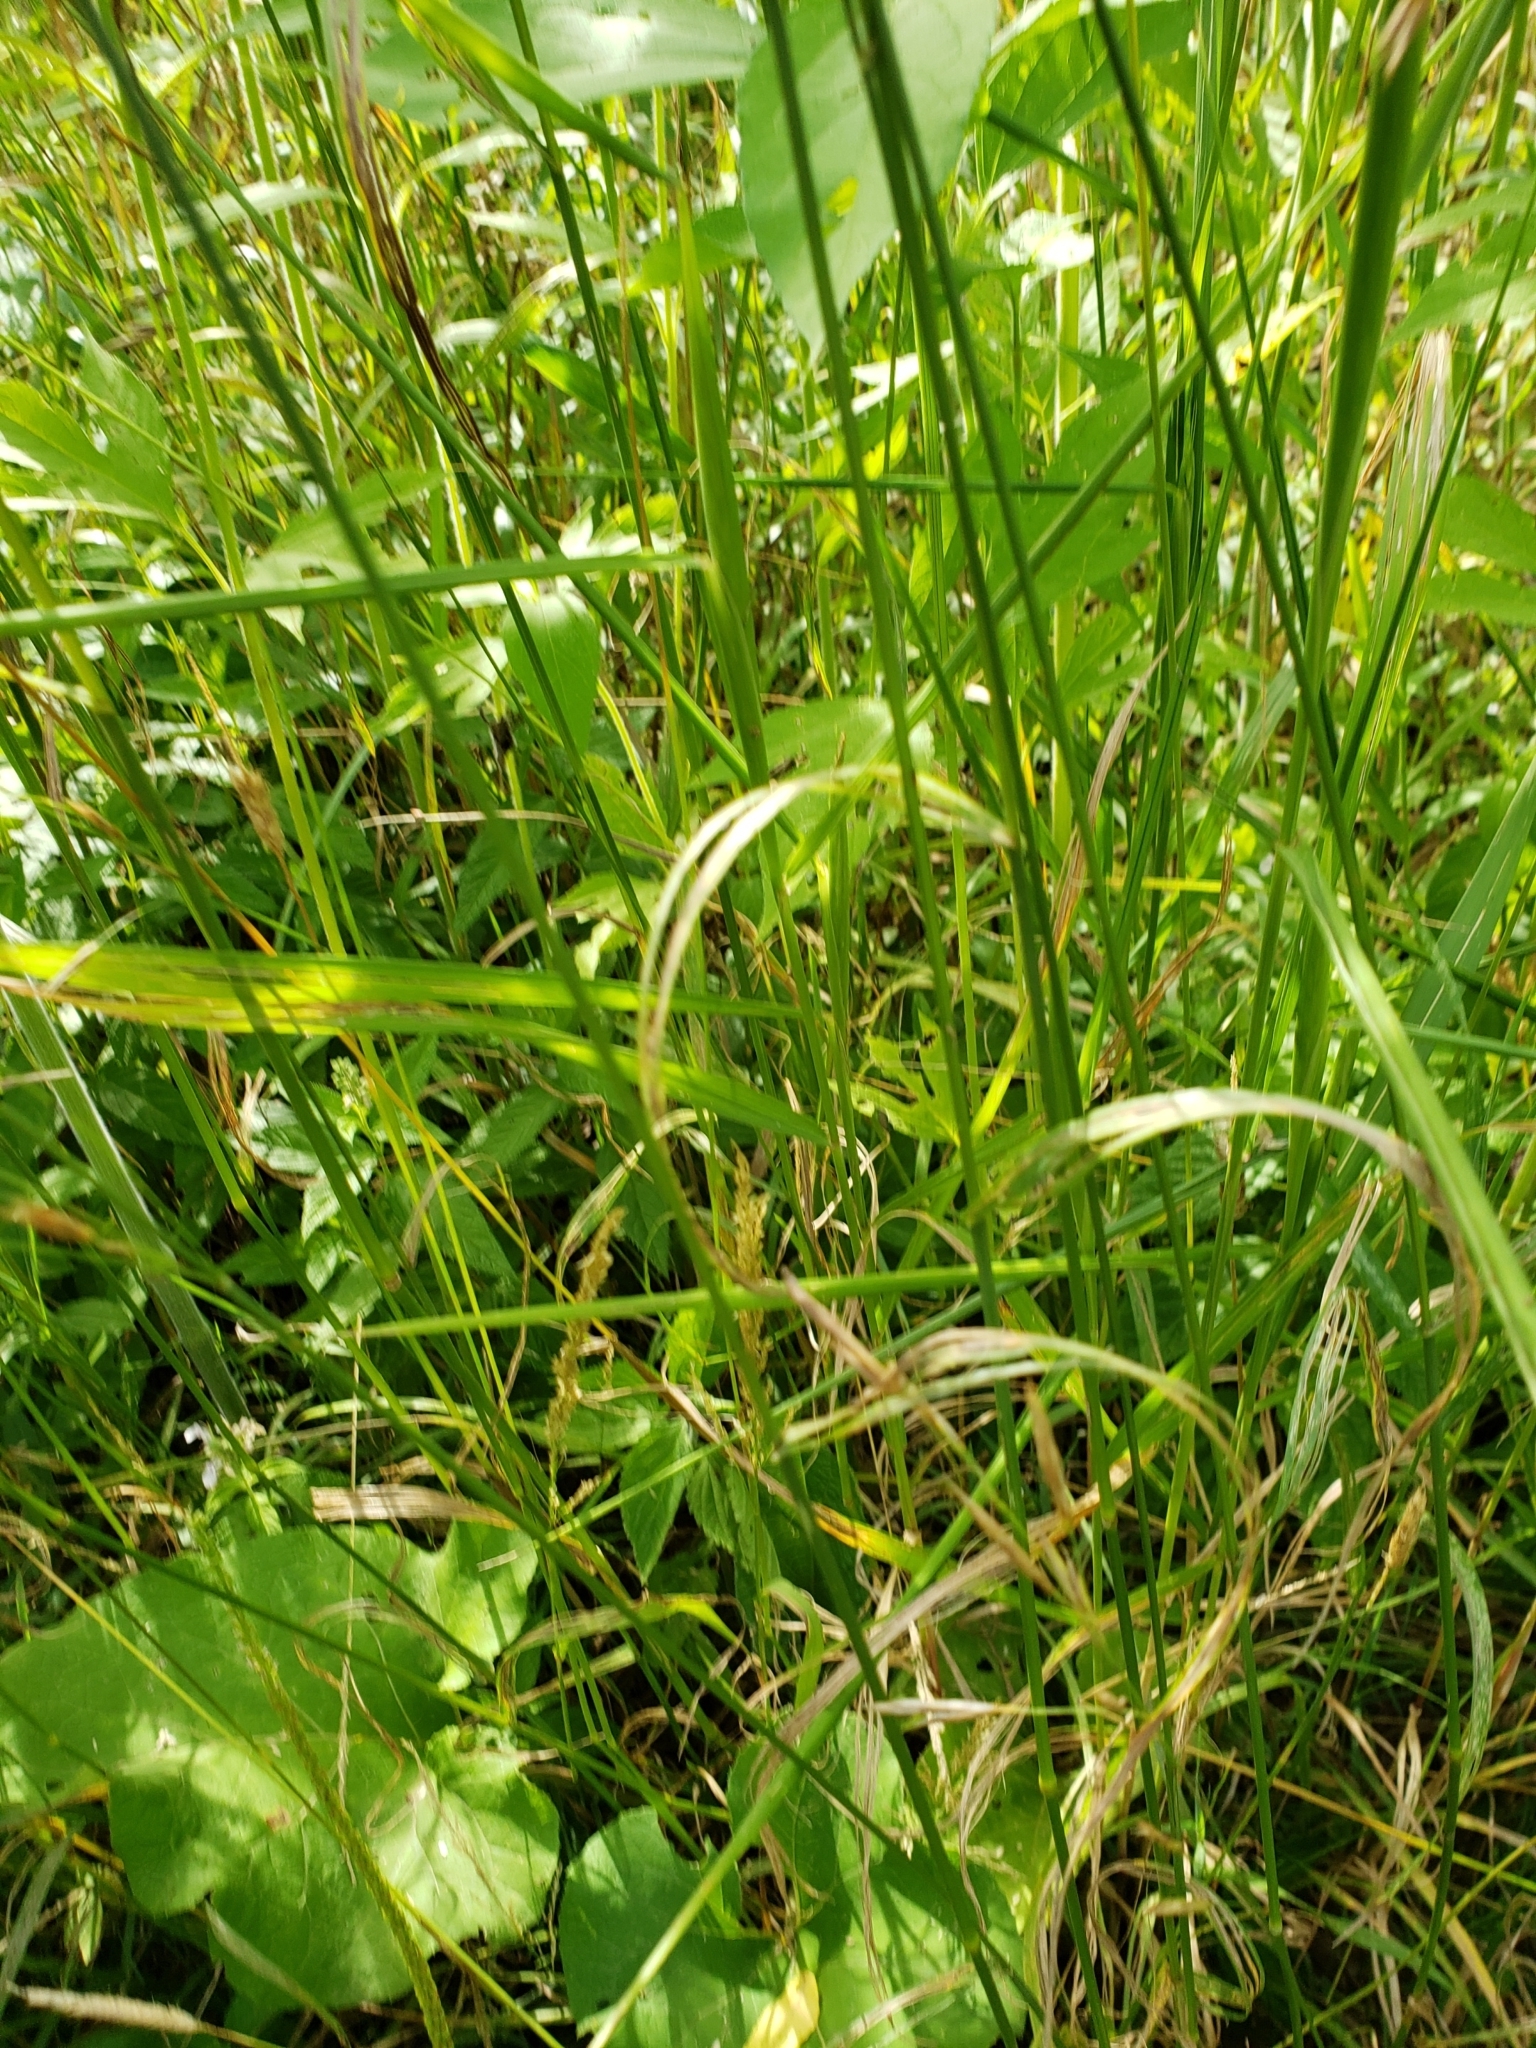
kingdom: Plantae
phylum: Tracheophyta
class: Liliopsida
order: Poales
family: Poaceae
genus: Bromus
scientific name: Bromus inermis
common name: Smooth brome
